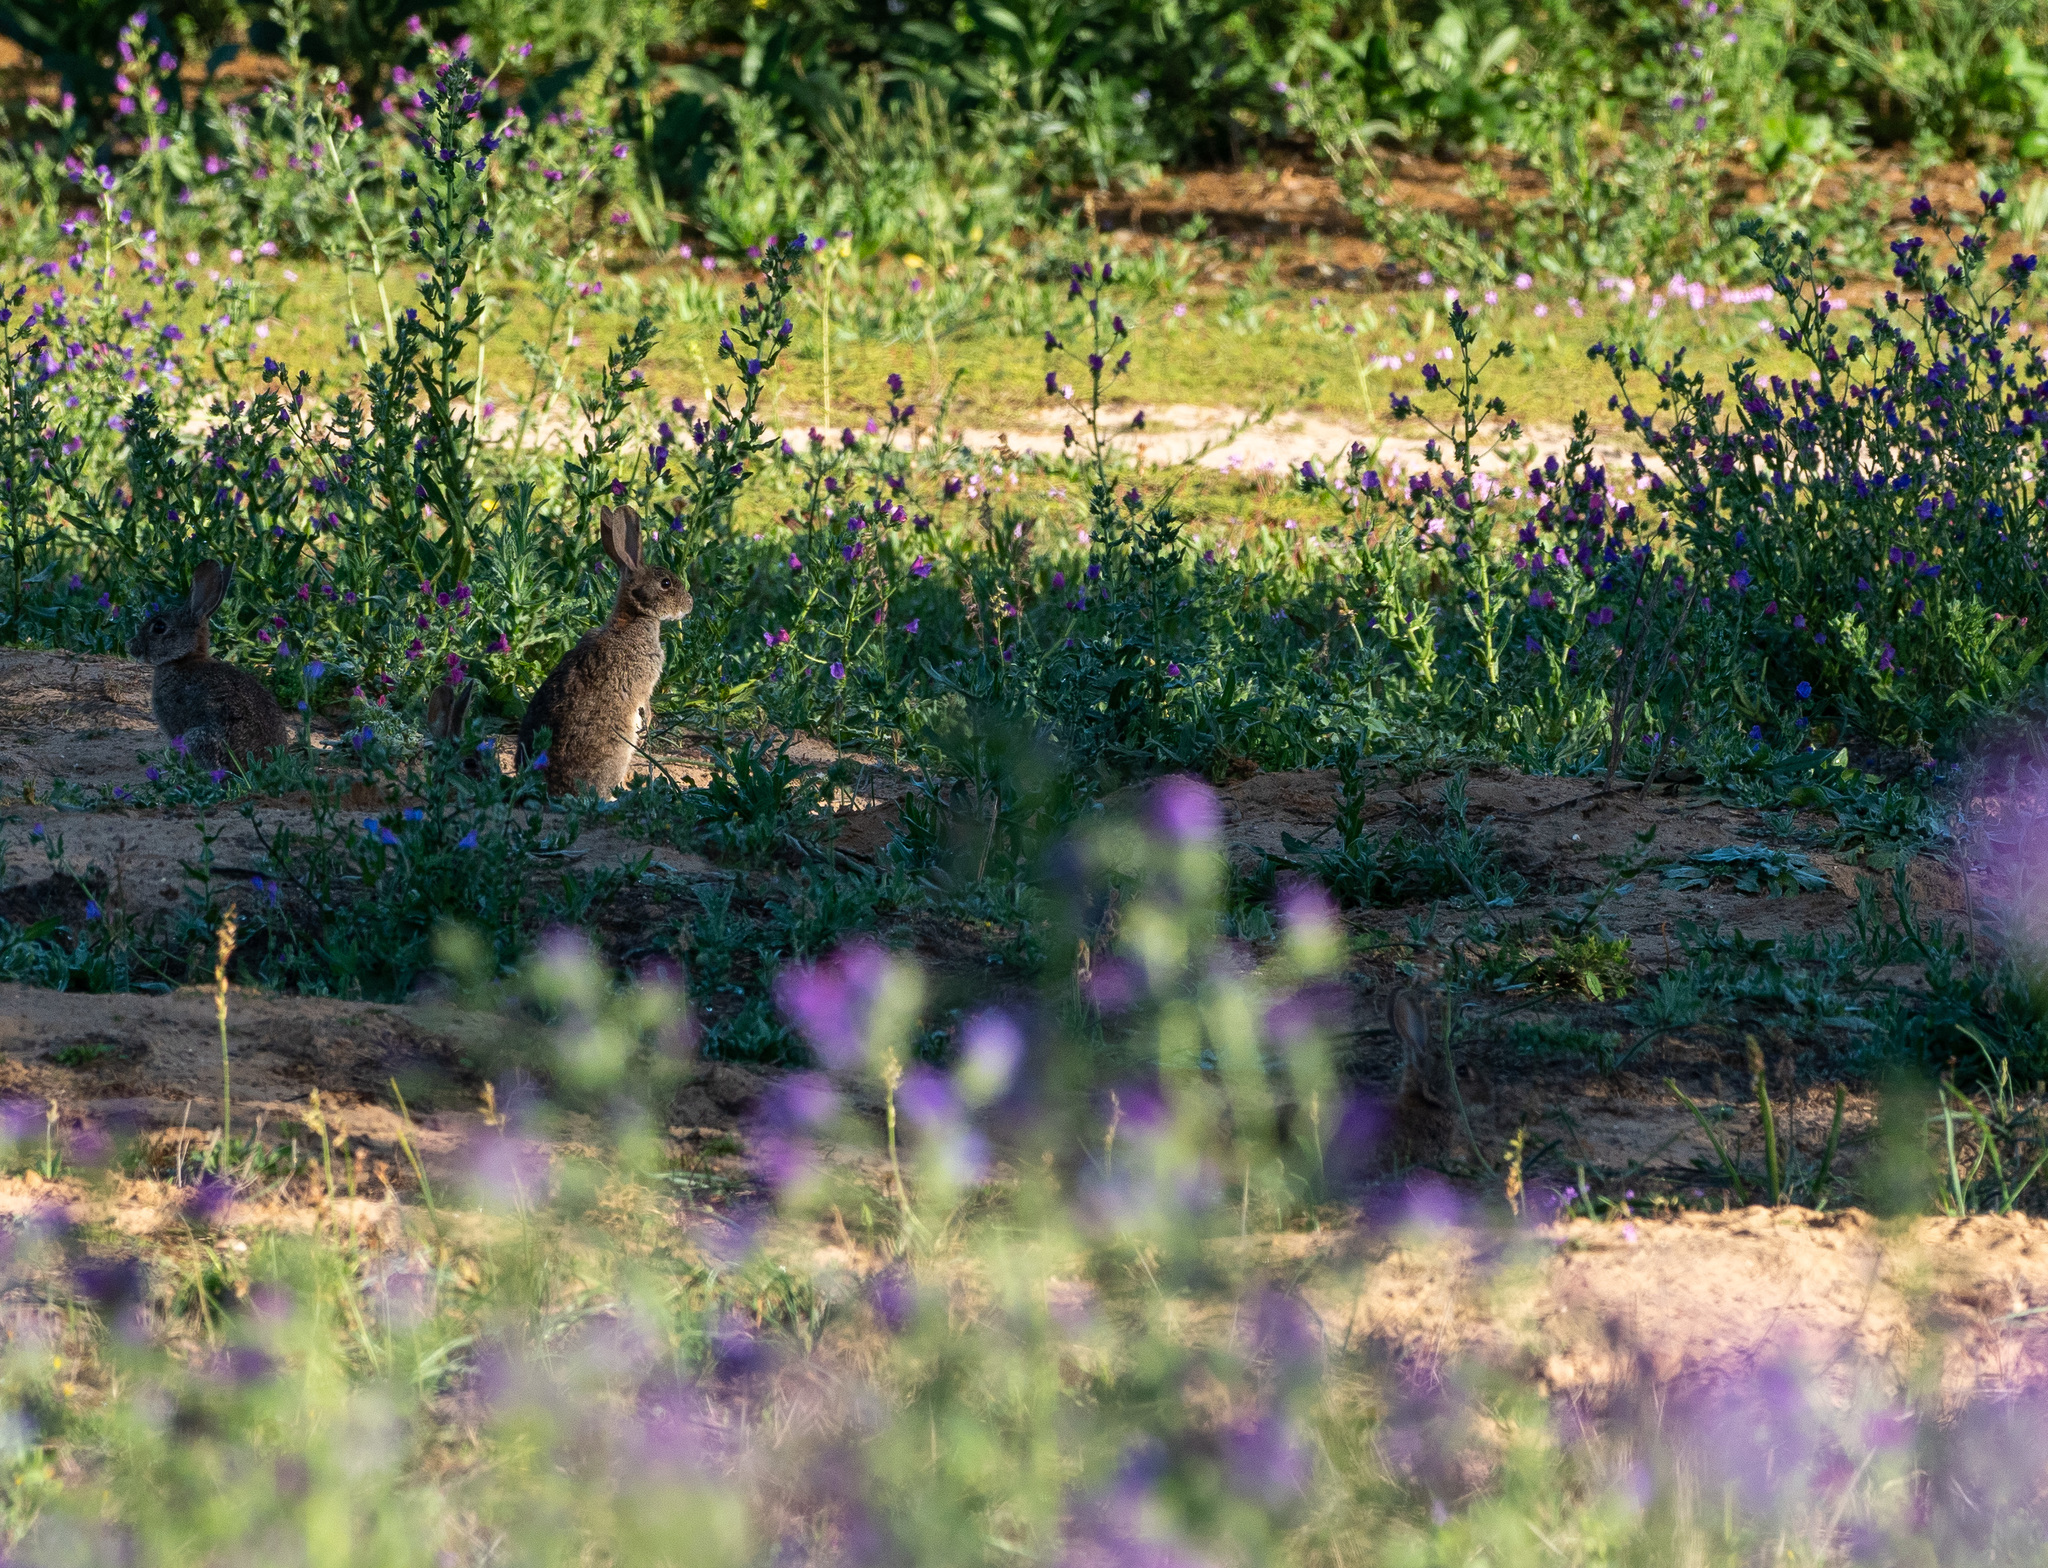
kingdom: Animalia
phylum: Chordata
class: Mammalia
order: Lagomorpha
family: Leporidae
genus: Oryctolagus
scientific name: Oryctolagus cuniculus
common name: European rabbit
